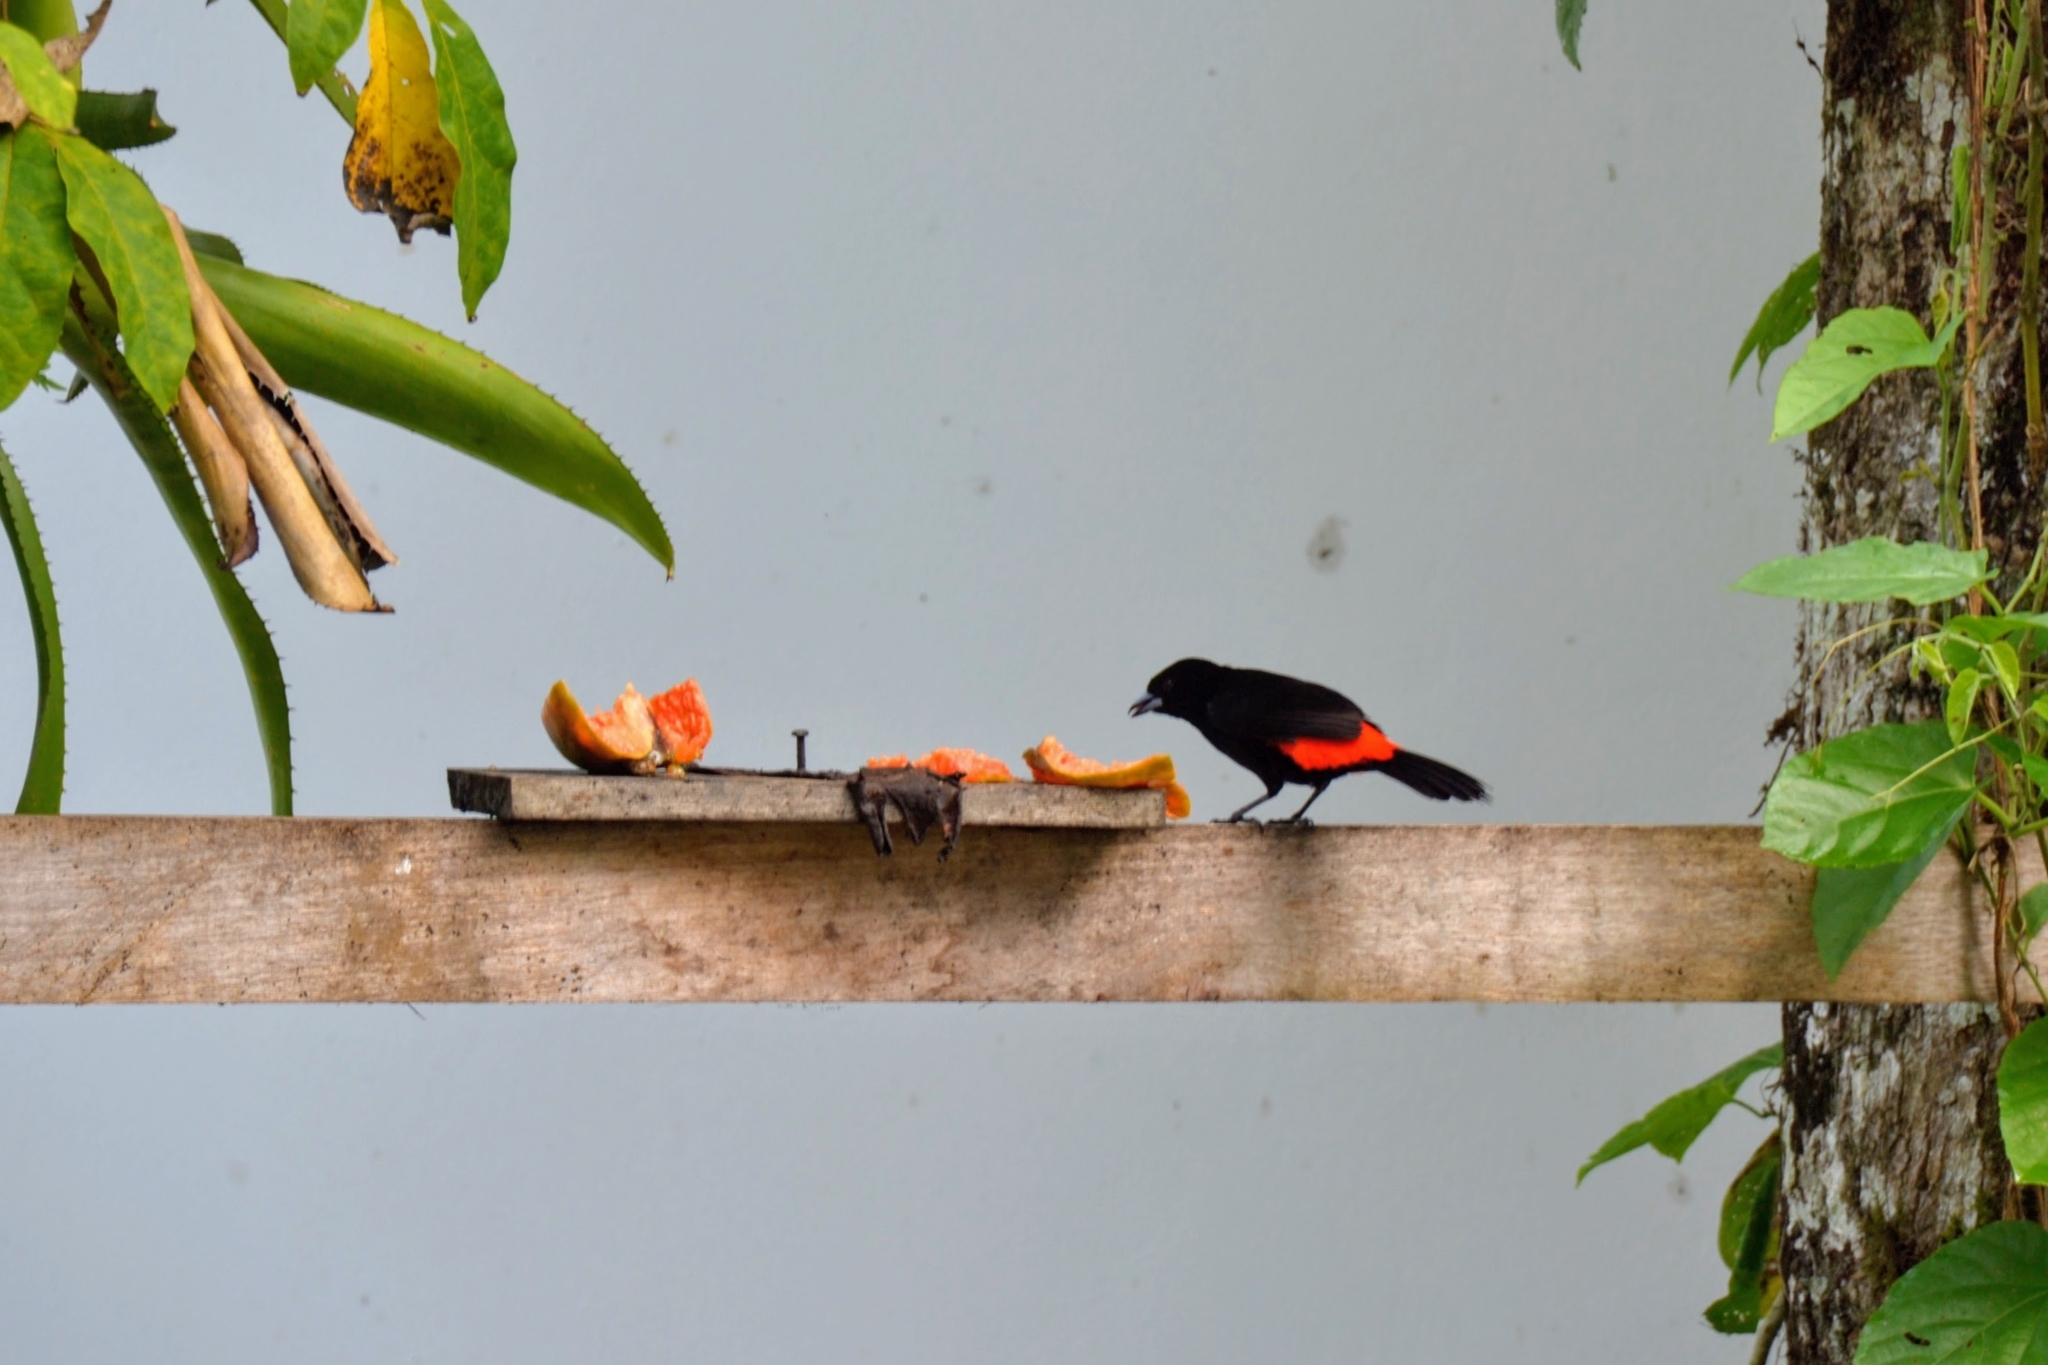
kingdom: Animalia
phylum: Chordata
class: Aves
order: Passeriformes
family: Thraupidae
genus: Ramphocelus
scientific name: Ramphocelus passerinii
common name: Passerini's tanager
